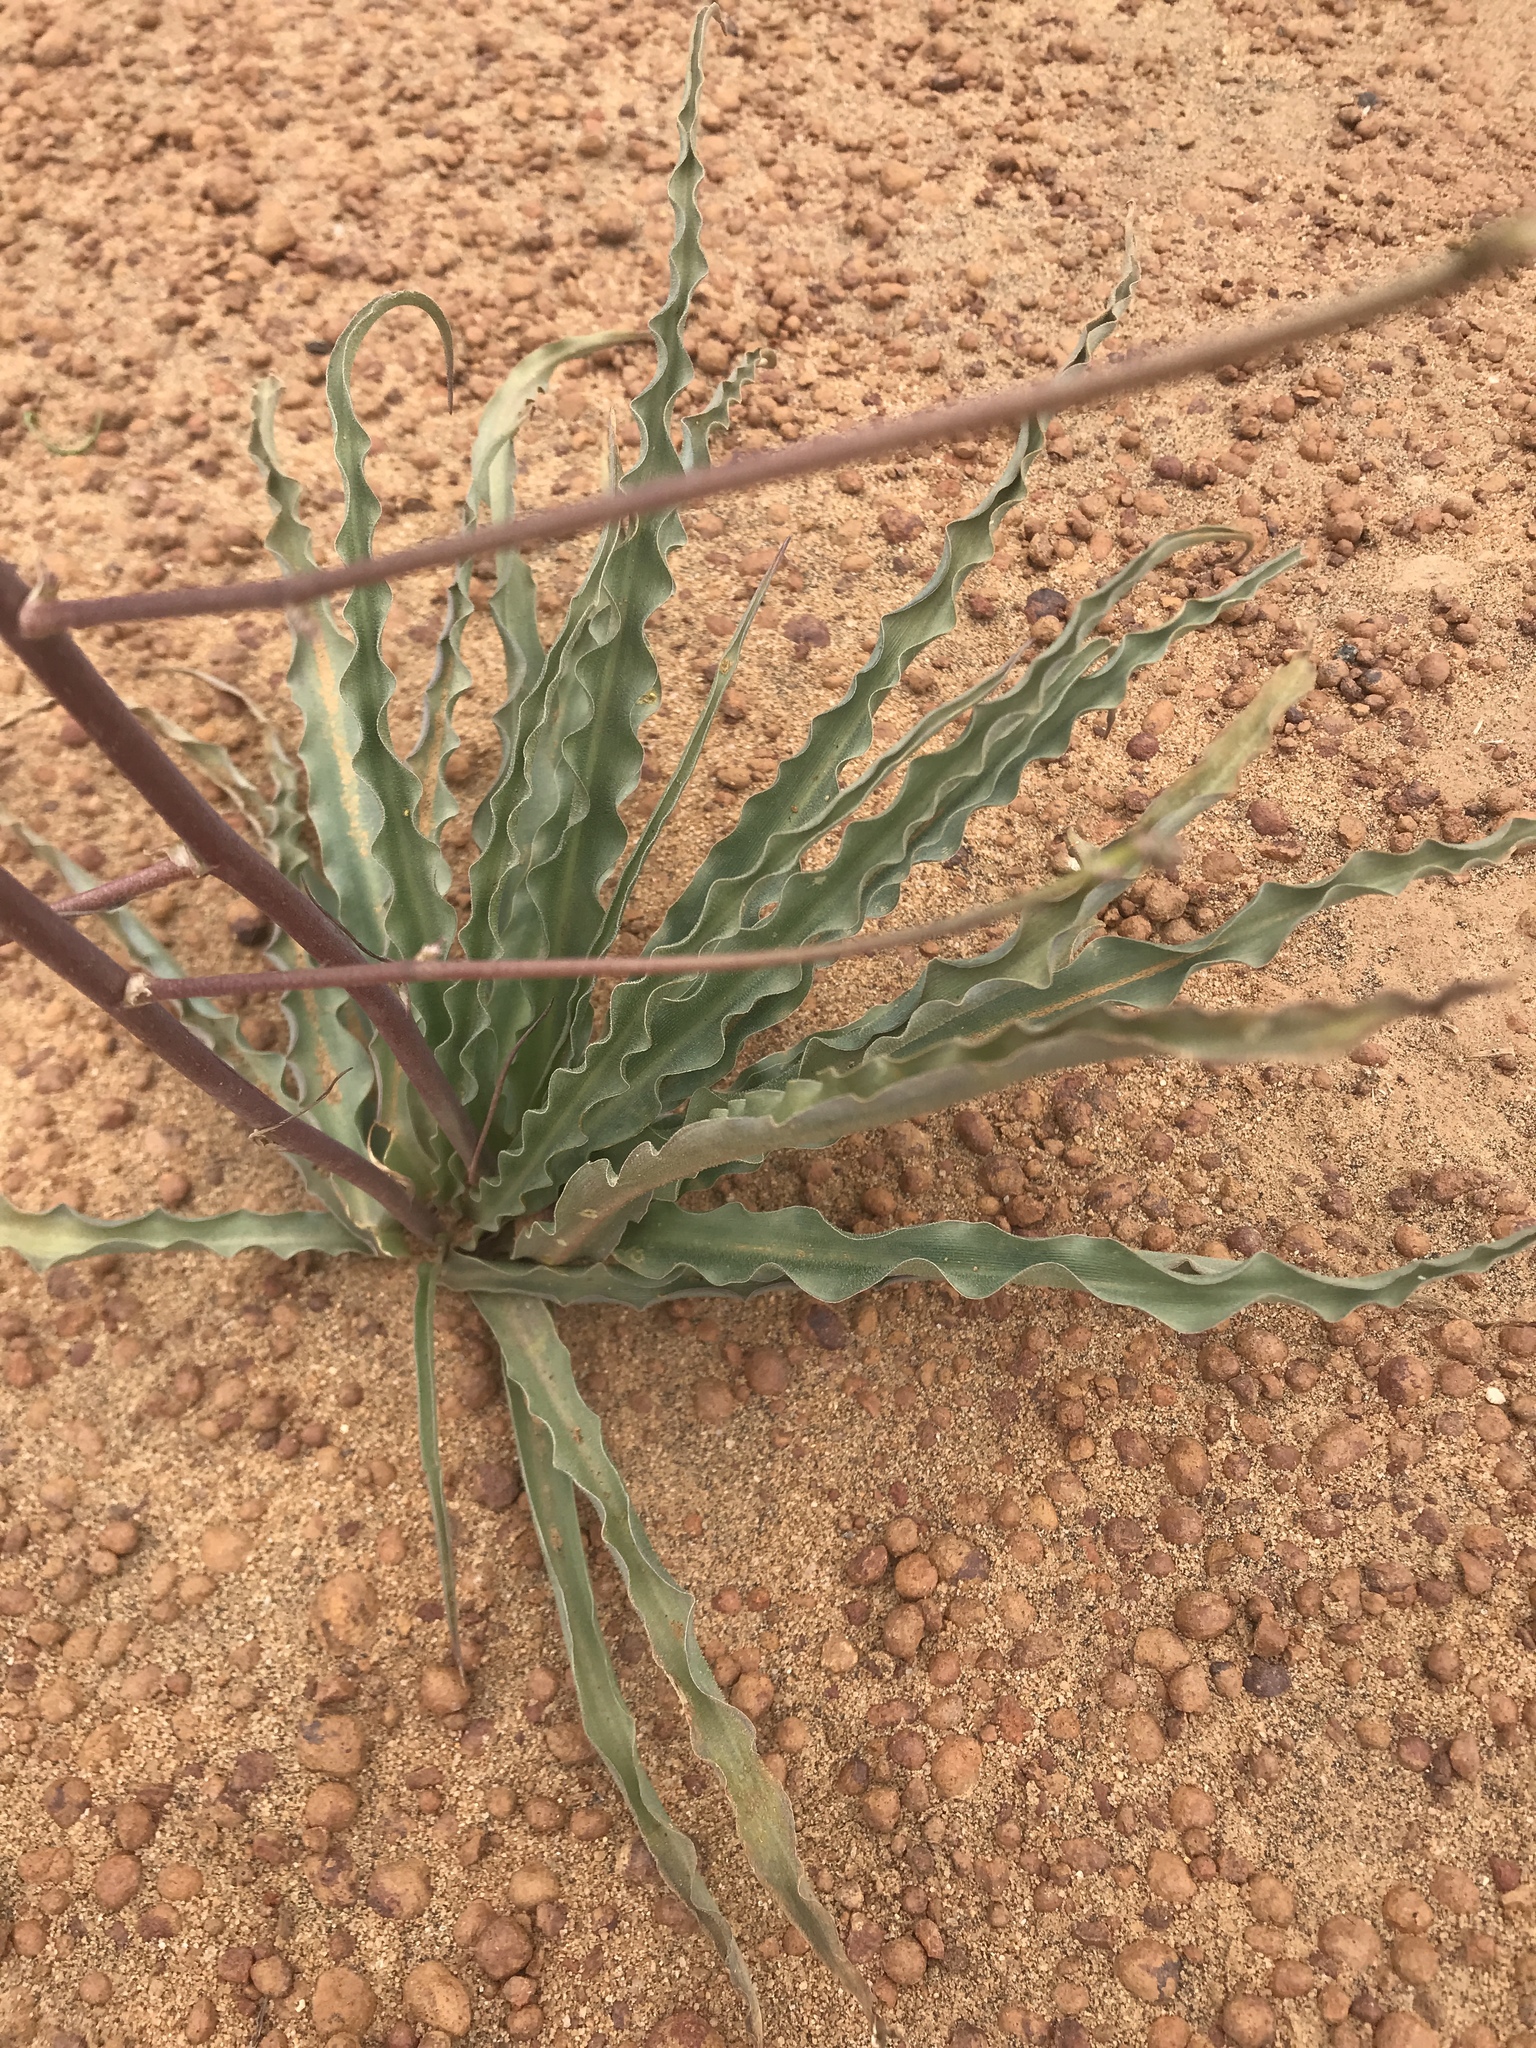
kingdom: Plantae
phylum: Tracheophyta
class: Liliopsida
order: Asparagales
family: Asparagaceae
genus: Hooveria
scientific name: Hooveria parviflora
